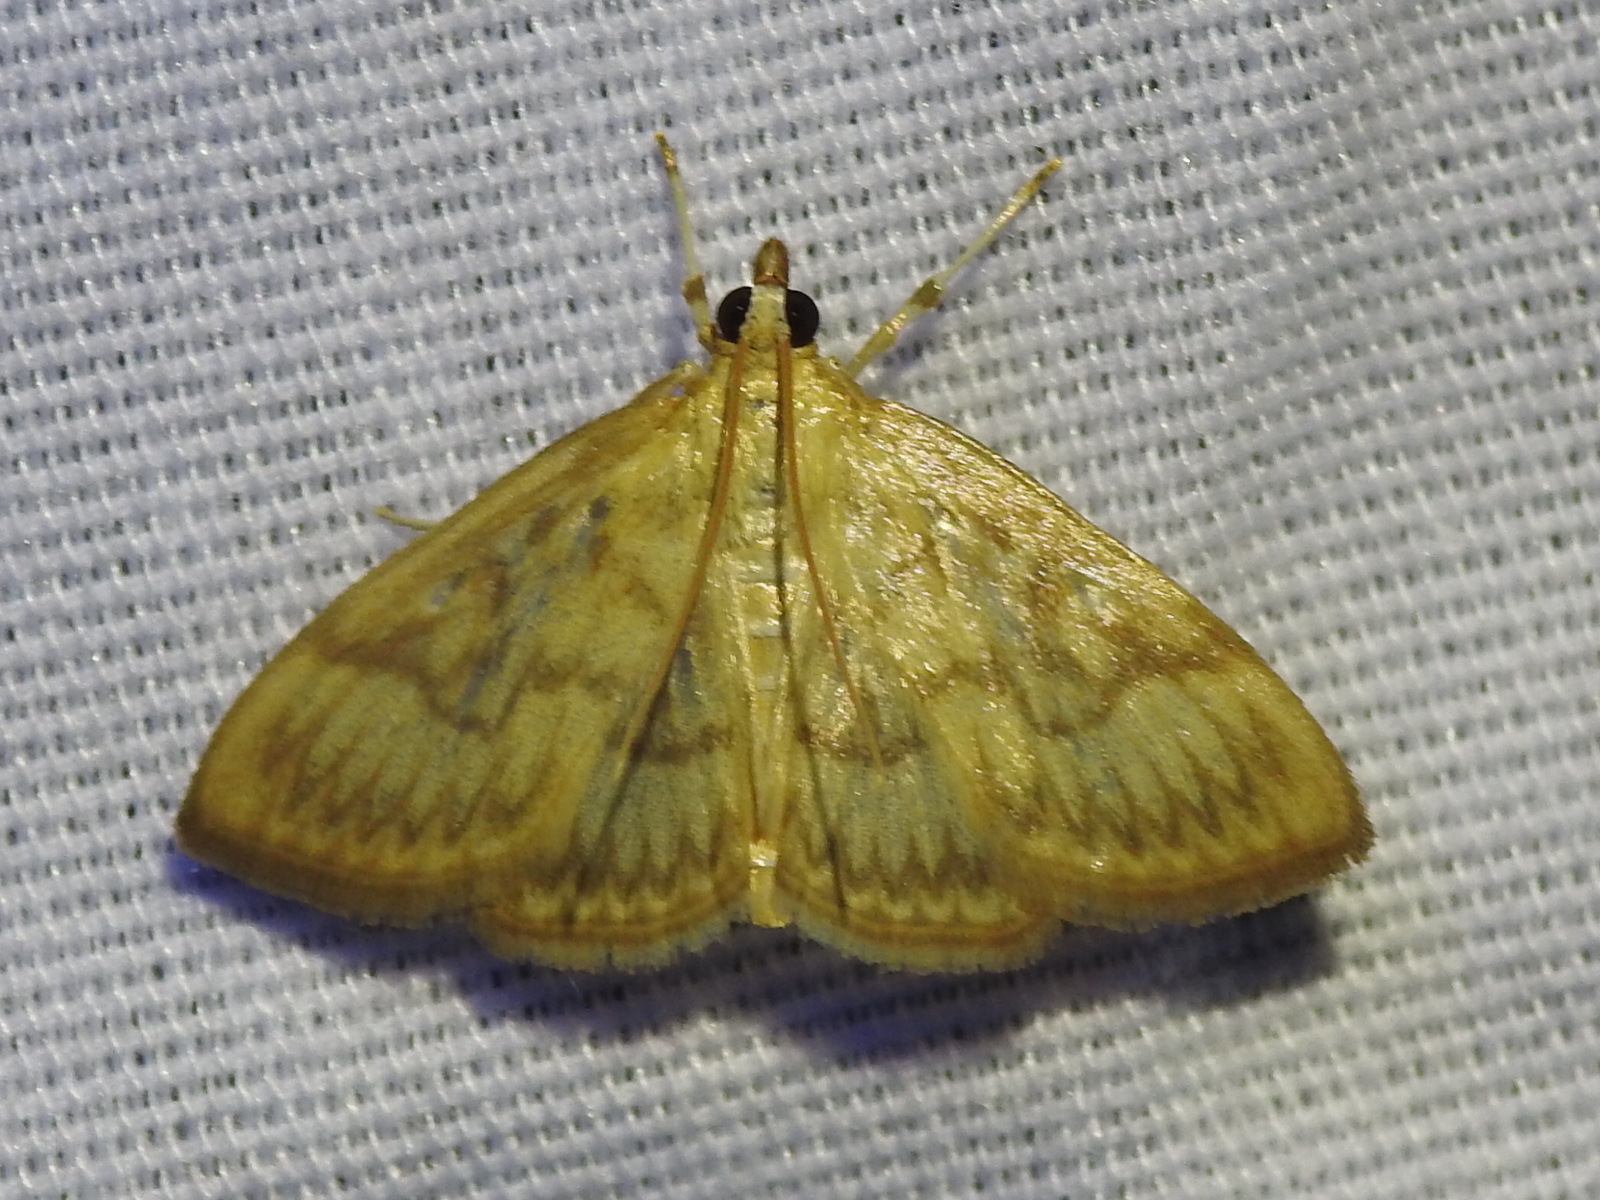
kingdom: Animalia
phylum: Arthropoda
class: Insecta
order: Lepidoptera
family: Crambidae
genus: Crocidophora
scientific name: Crocidophora serratissimalis
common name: Saw-toothed crocidophora moth
